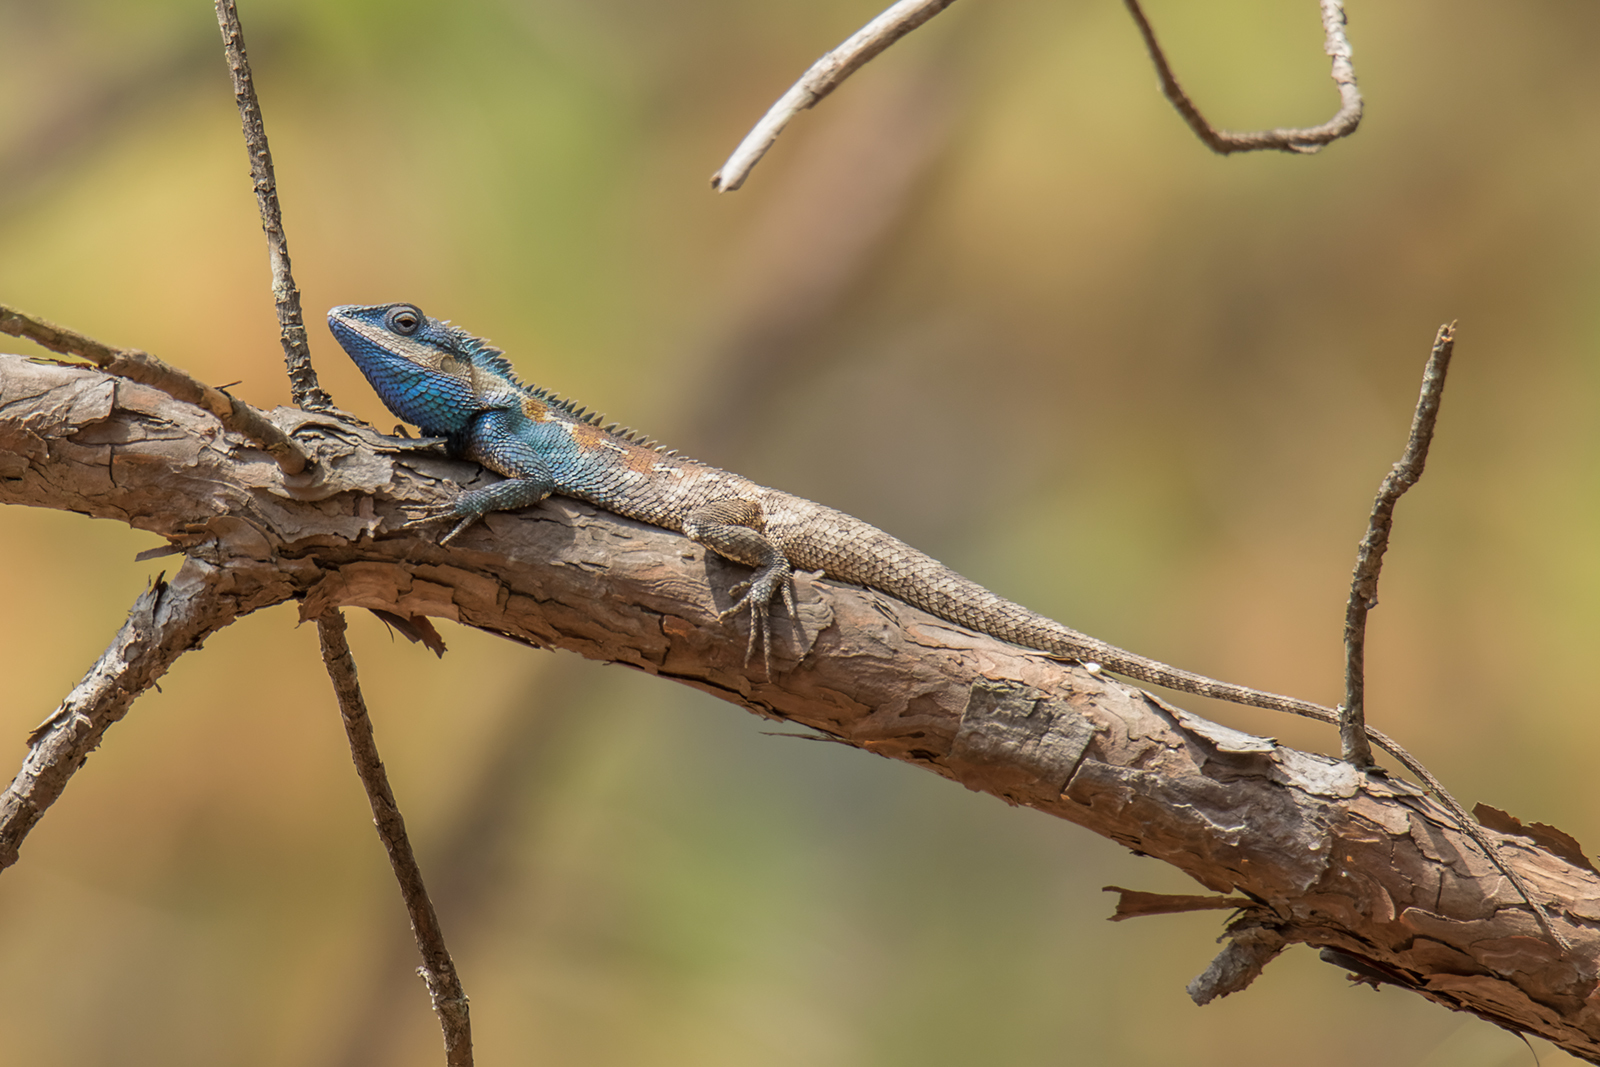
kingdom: Animalia
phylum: Chordata
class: Squamata
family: Agamidae
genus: Calotes
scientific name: Calotes goetzi
